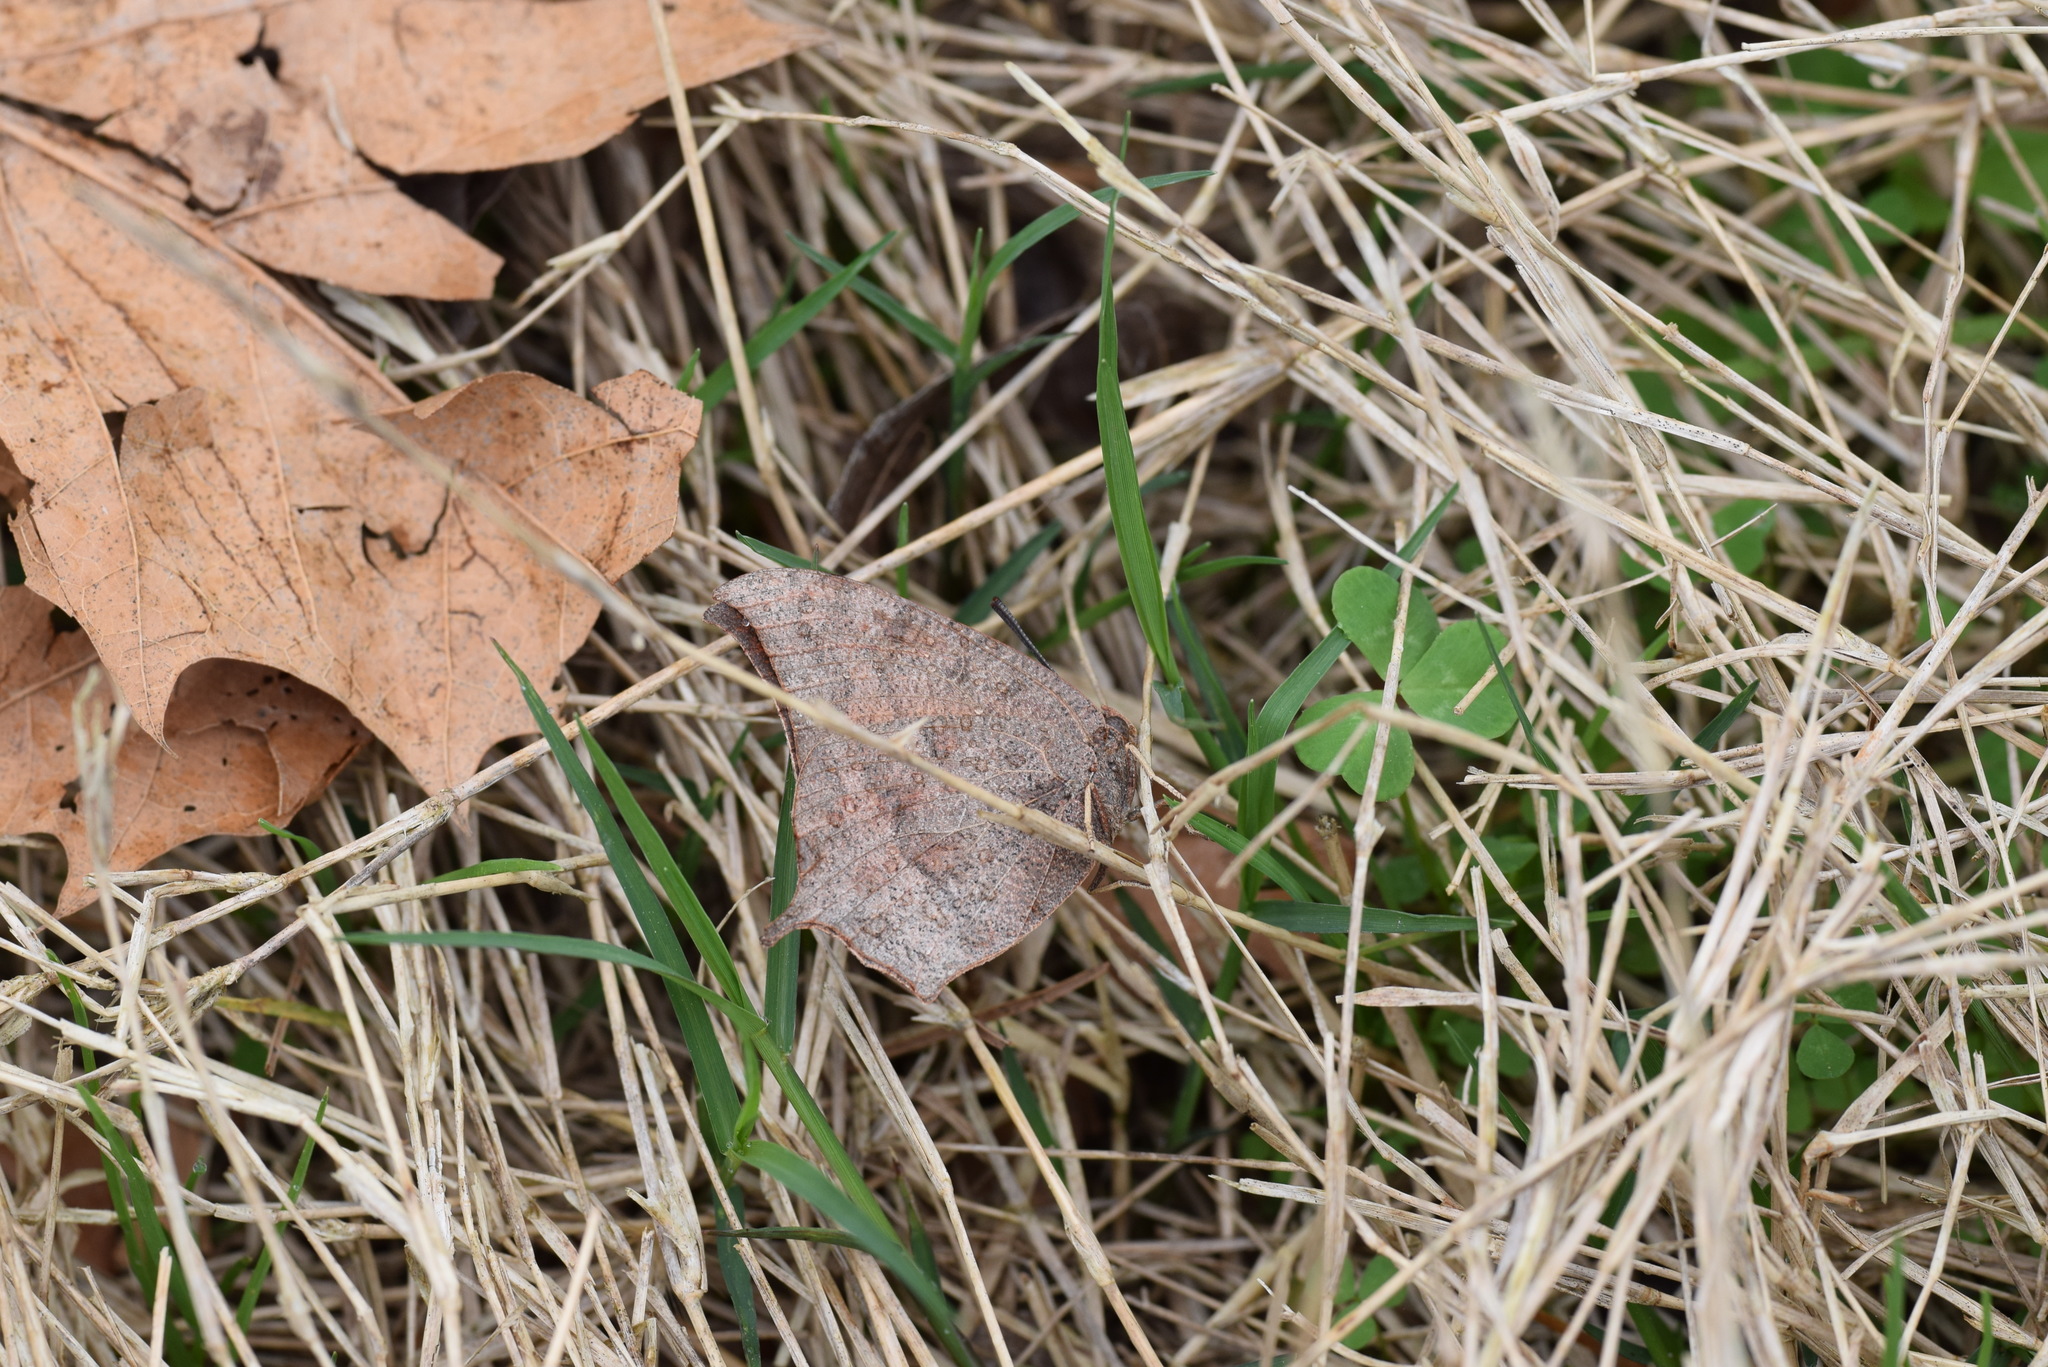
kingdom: Animalia
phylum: Arthropoda
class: Insecta
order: Lepidoptera
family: Nymphalidae
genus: Anaea
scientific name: Anaea andria
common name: Goatweed leafwing
